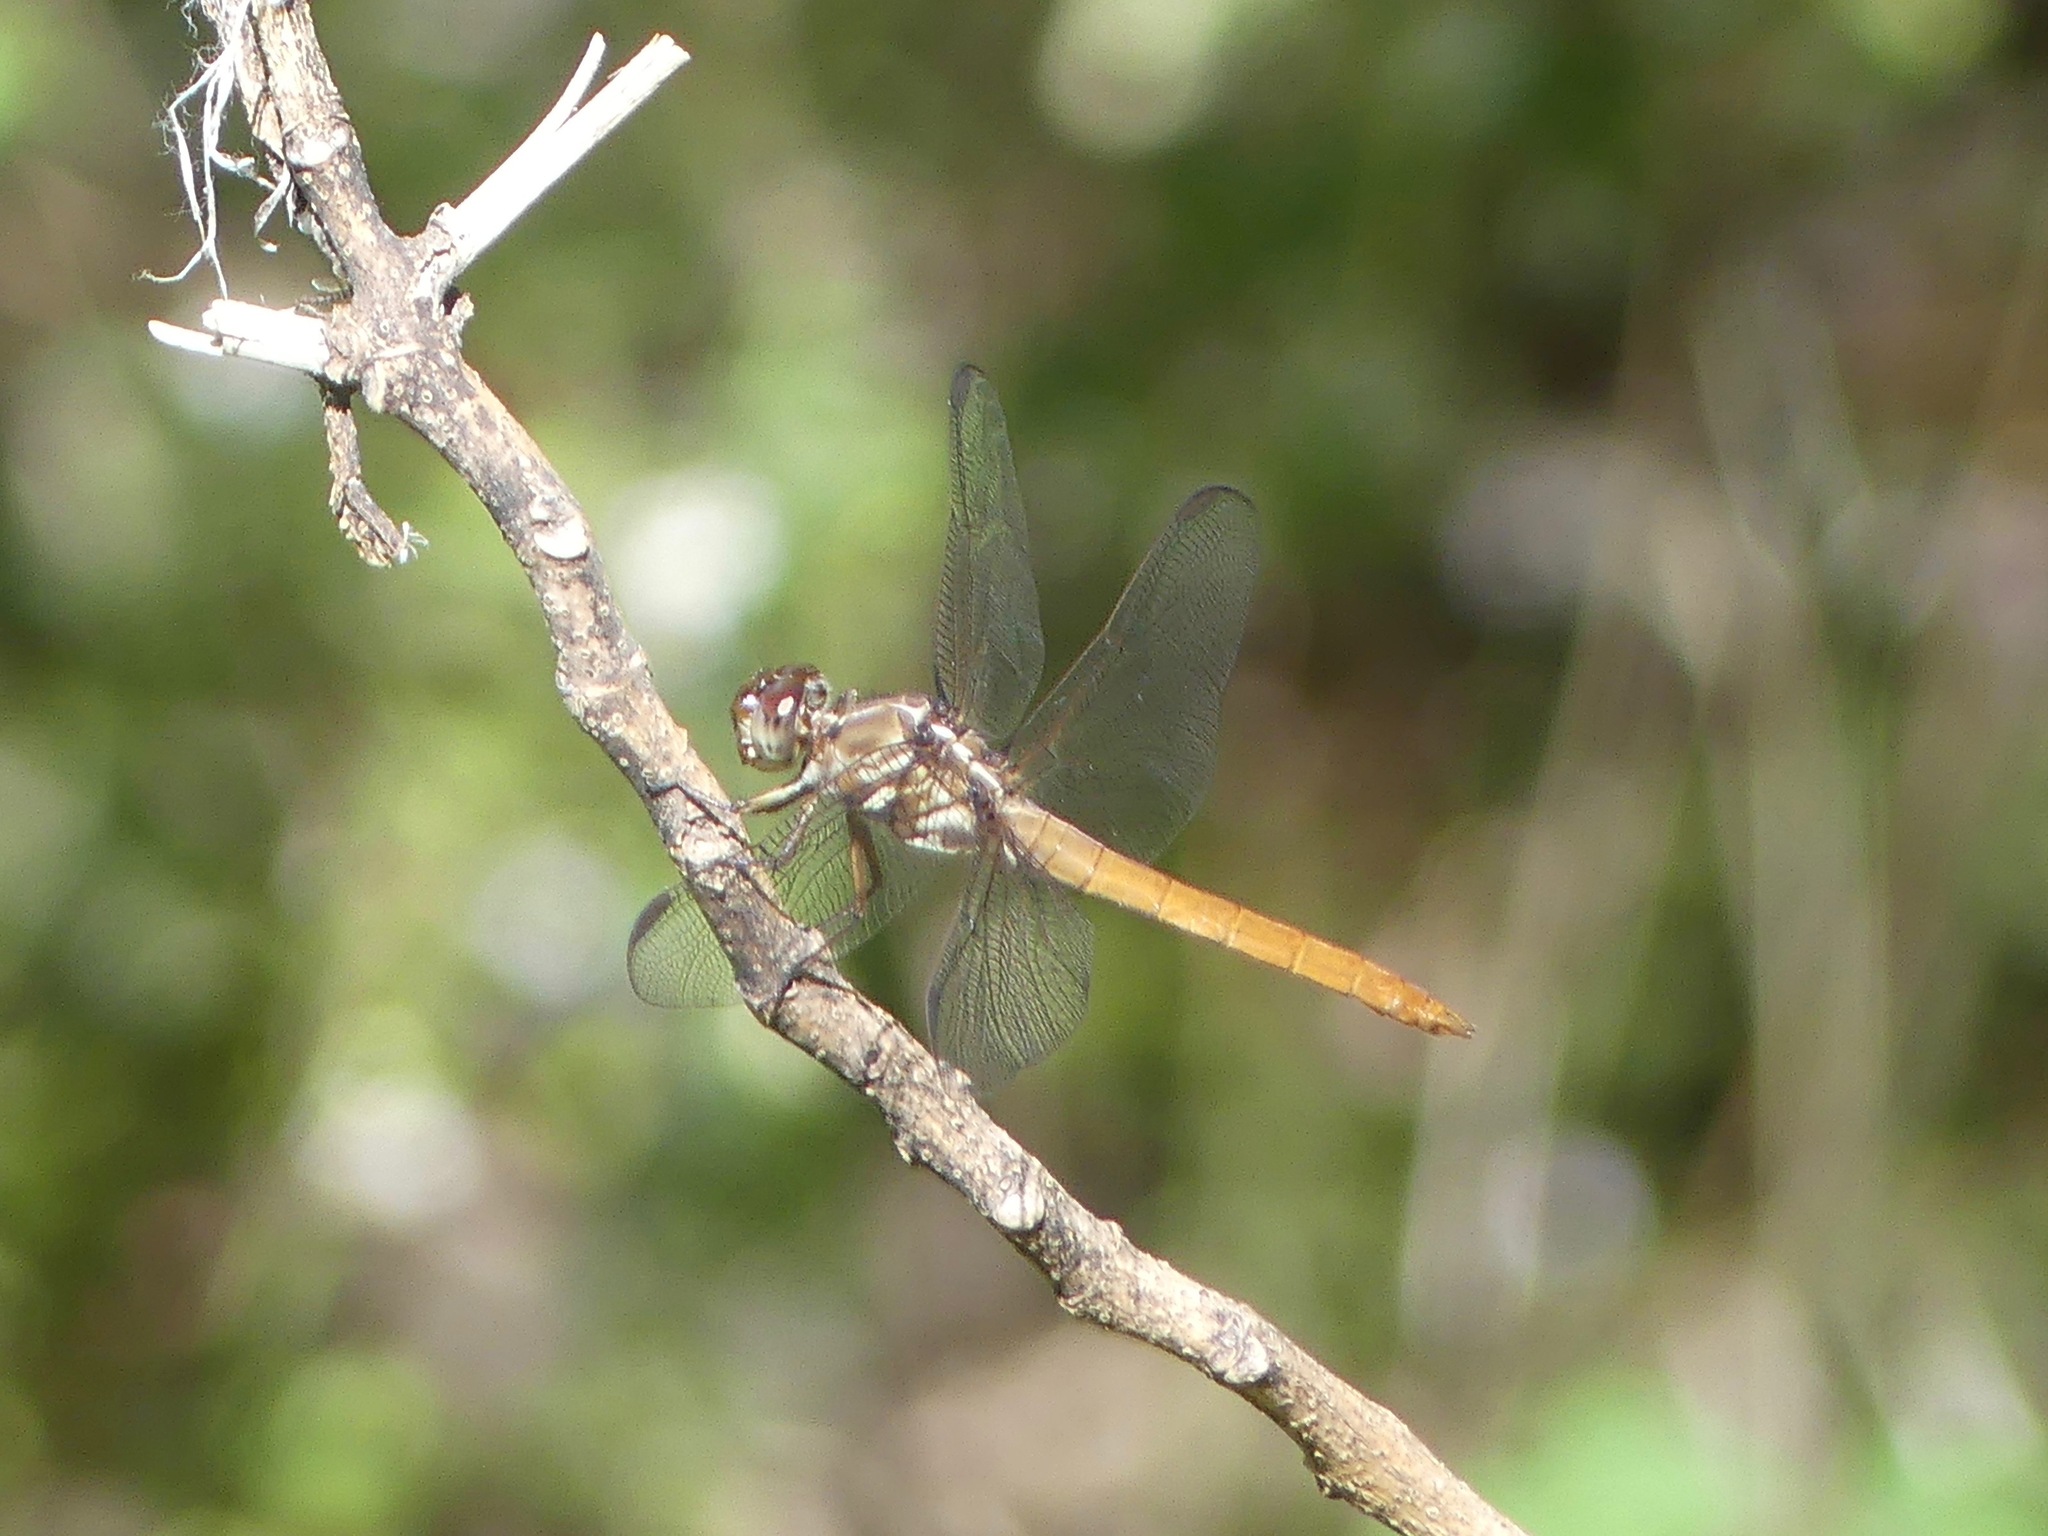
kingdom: Animalia
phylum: Arthropoda
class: Insecta
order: Odonata
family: Libellulidae
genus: Orthemis
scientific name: Orthemis ferruginea
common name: Roseate skimmer
